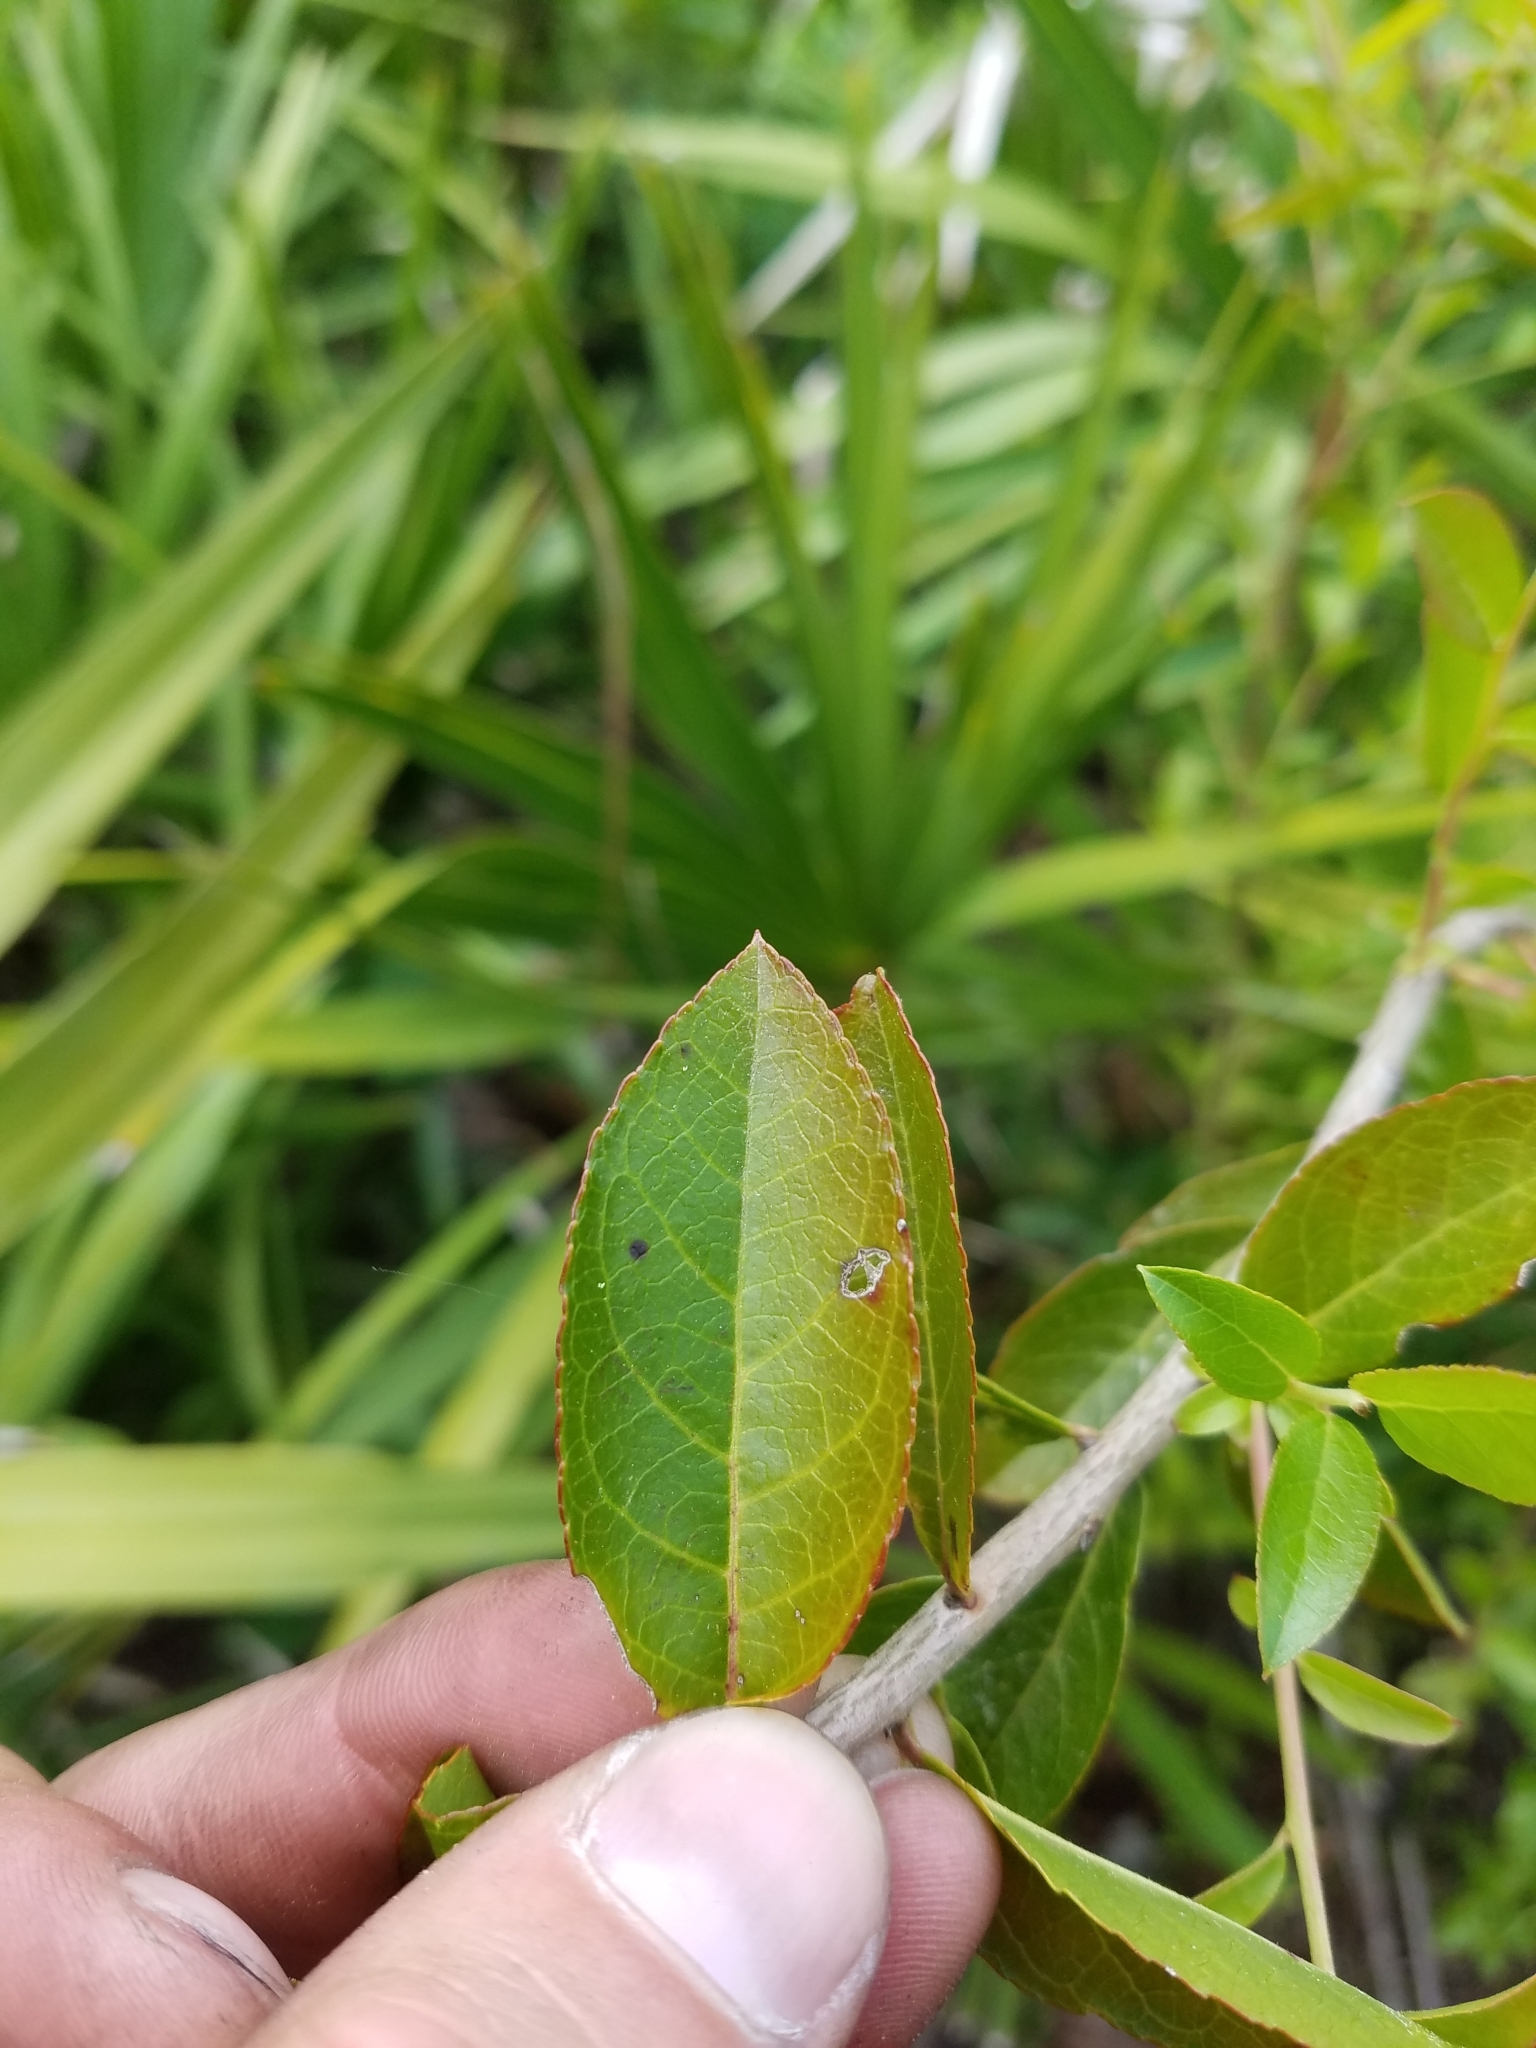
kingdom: Plantae
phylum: Tracheophyta
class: Magnoliopsida
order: Ericales
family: Ericaceae
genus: Eubotrys
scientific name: Eubotrys racemosa
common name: Fetterbush
